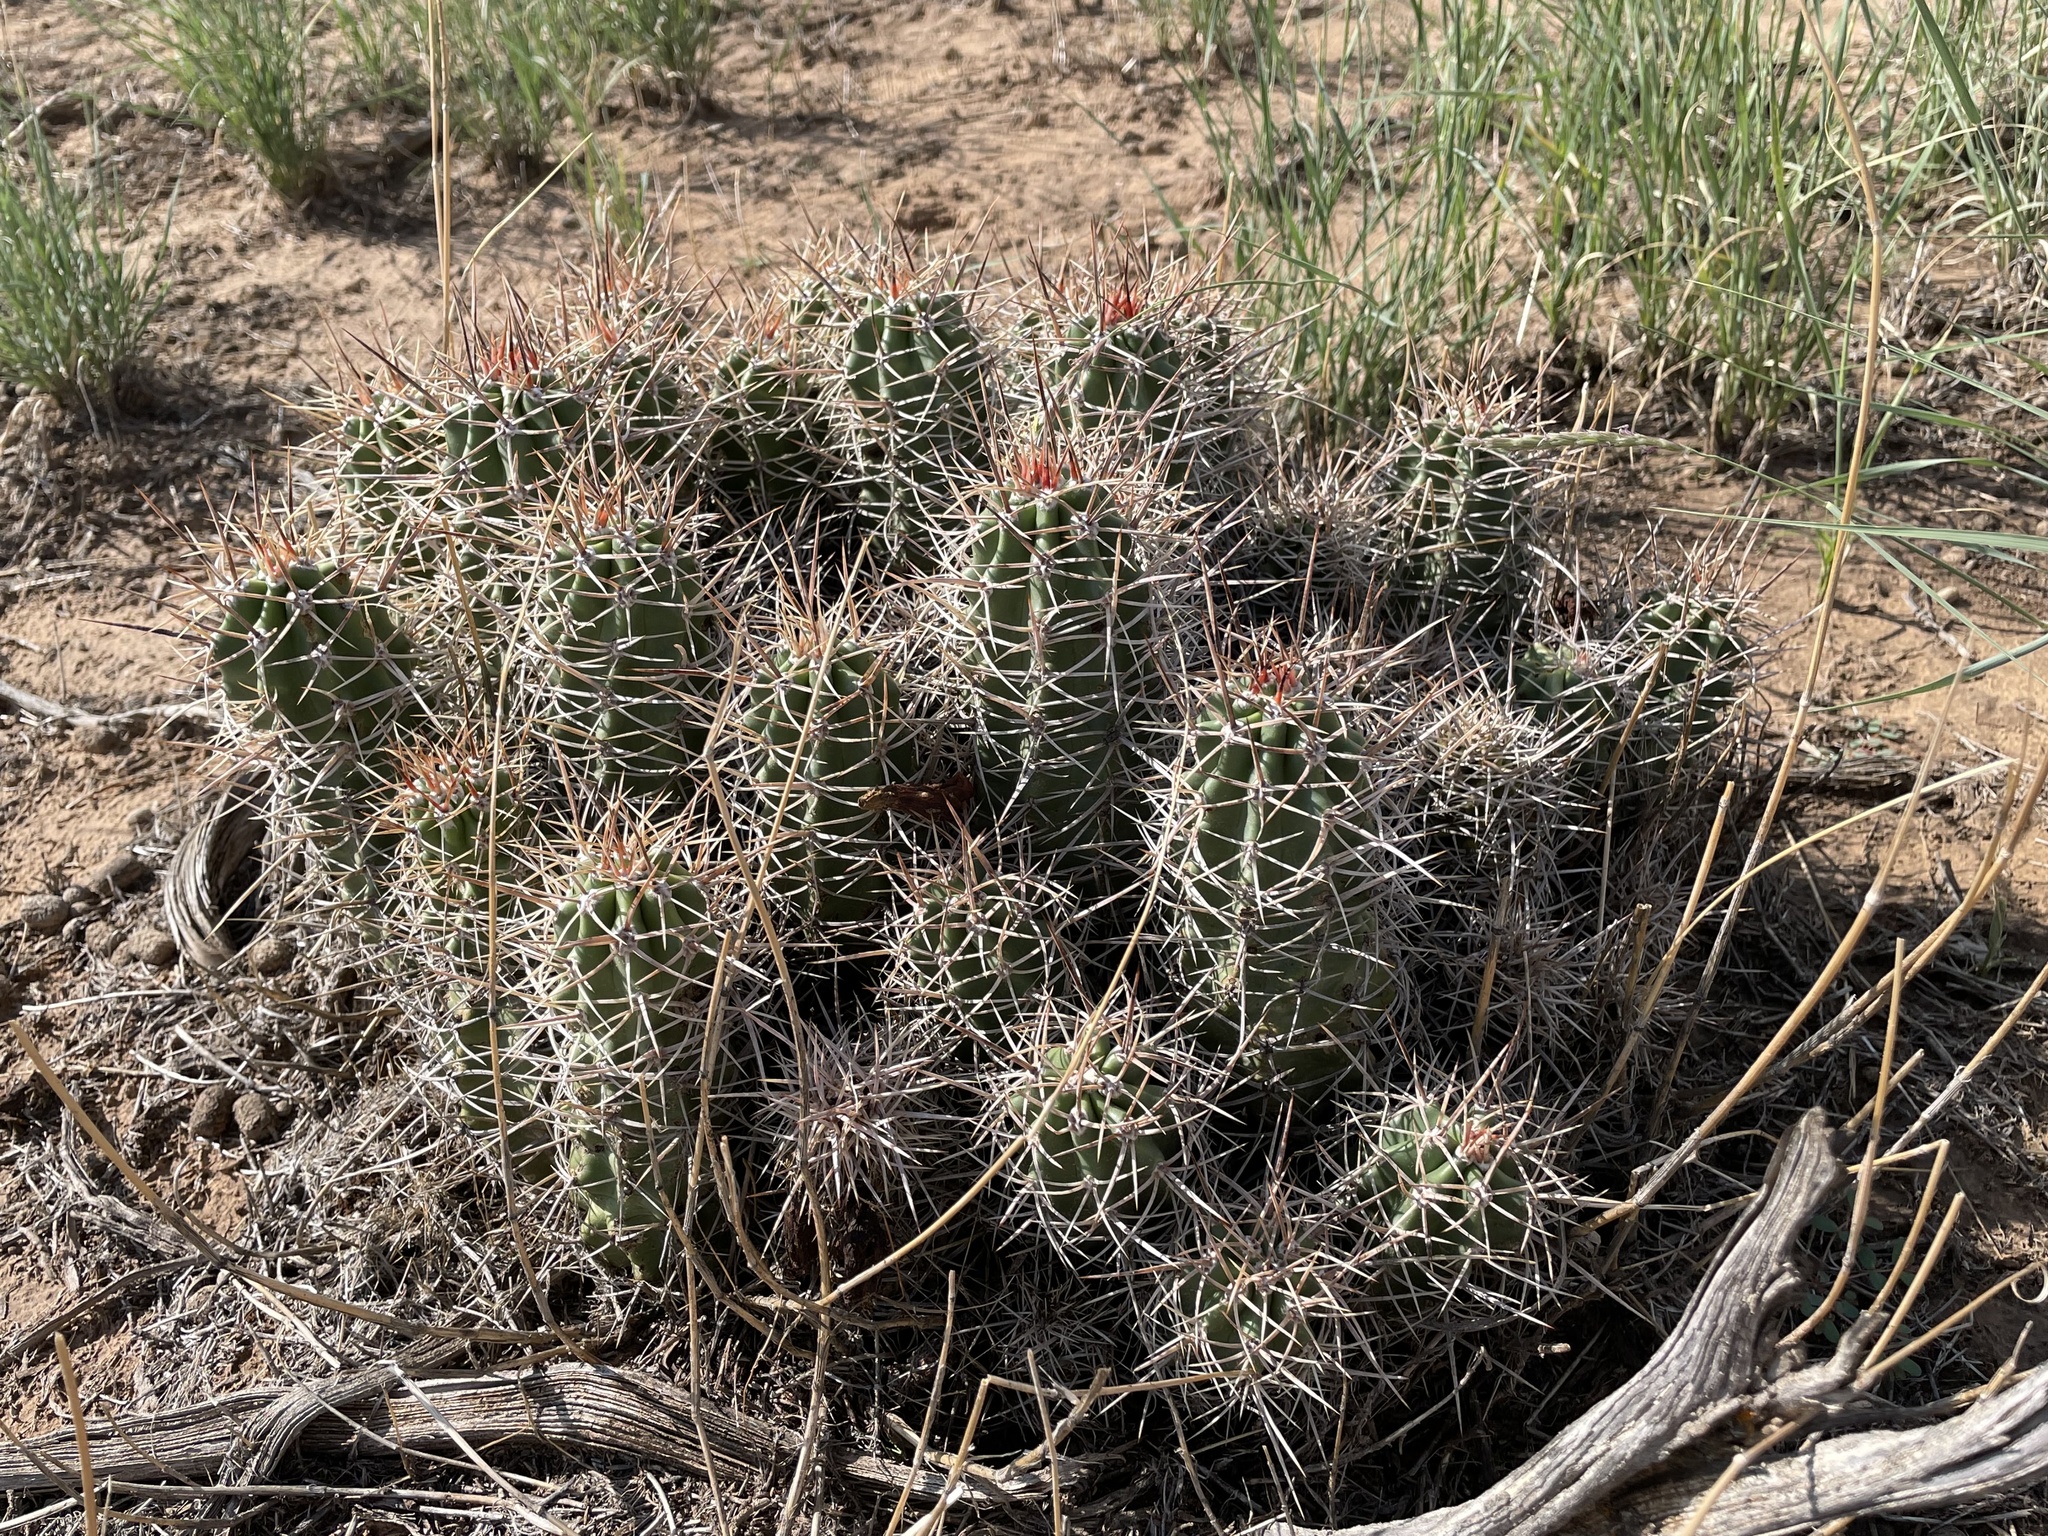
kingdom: Plantae
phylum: Tracheophyta
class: Magnoliopsida
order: Caryophyllales
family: Cactaceae
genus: Echinocereus
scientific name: Echinocereus triglochidiatus
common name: Claretcup hedgehog
